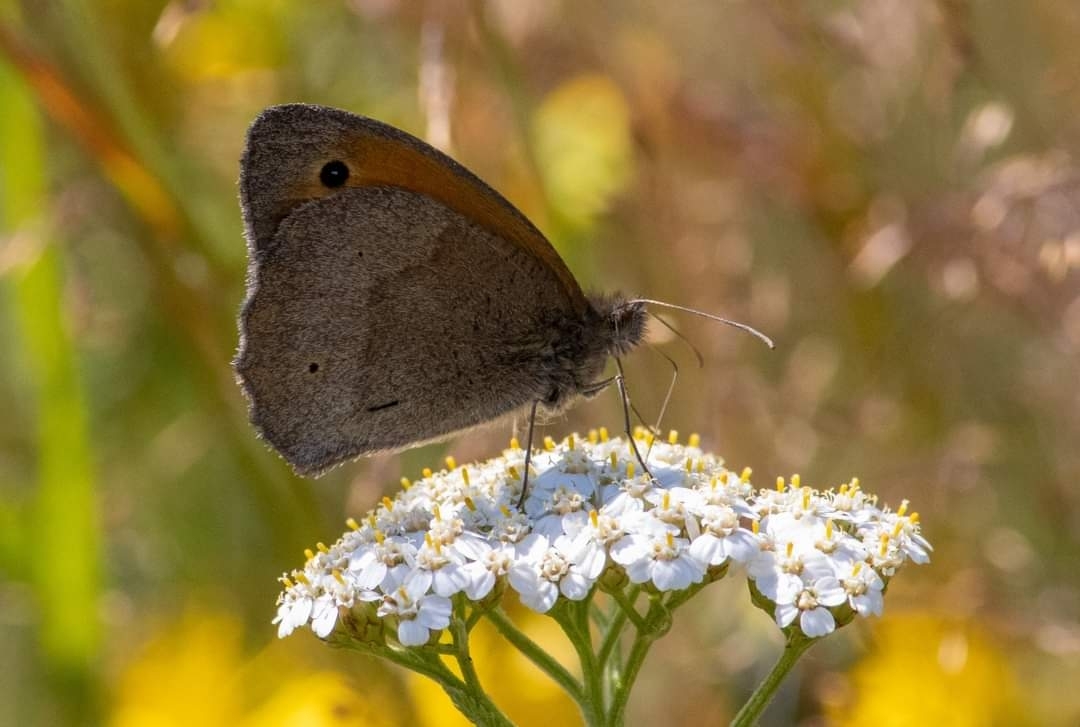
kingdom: Animalia
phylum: Arthropoda
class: Insecta
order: Lepidoptera
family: Nymphalidae
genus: Maniola
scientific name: Maniola jurtina
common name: Meadow brown
